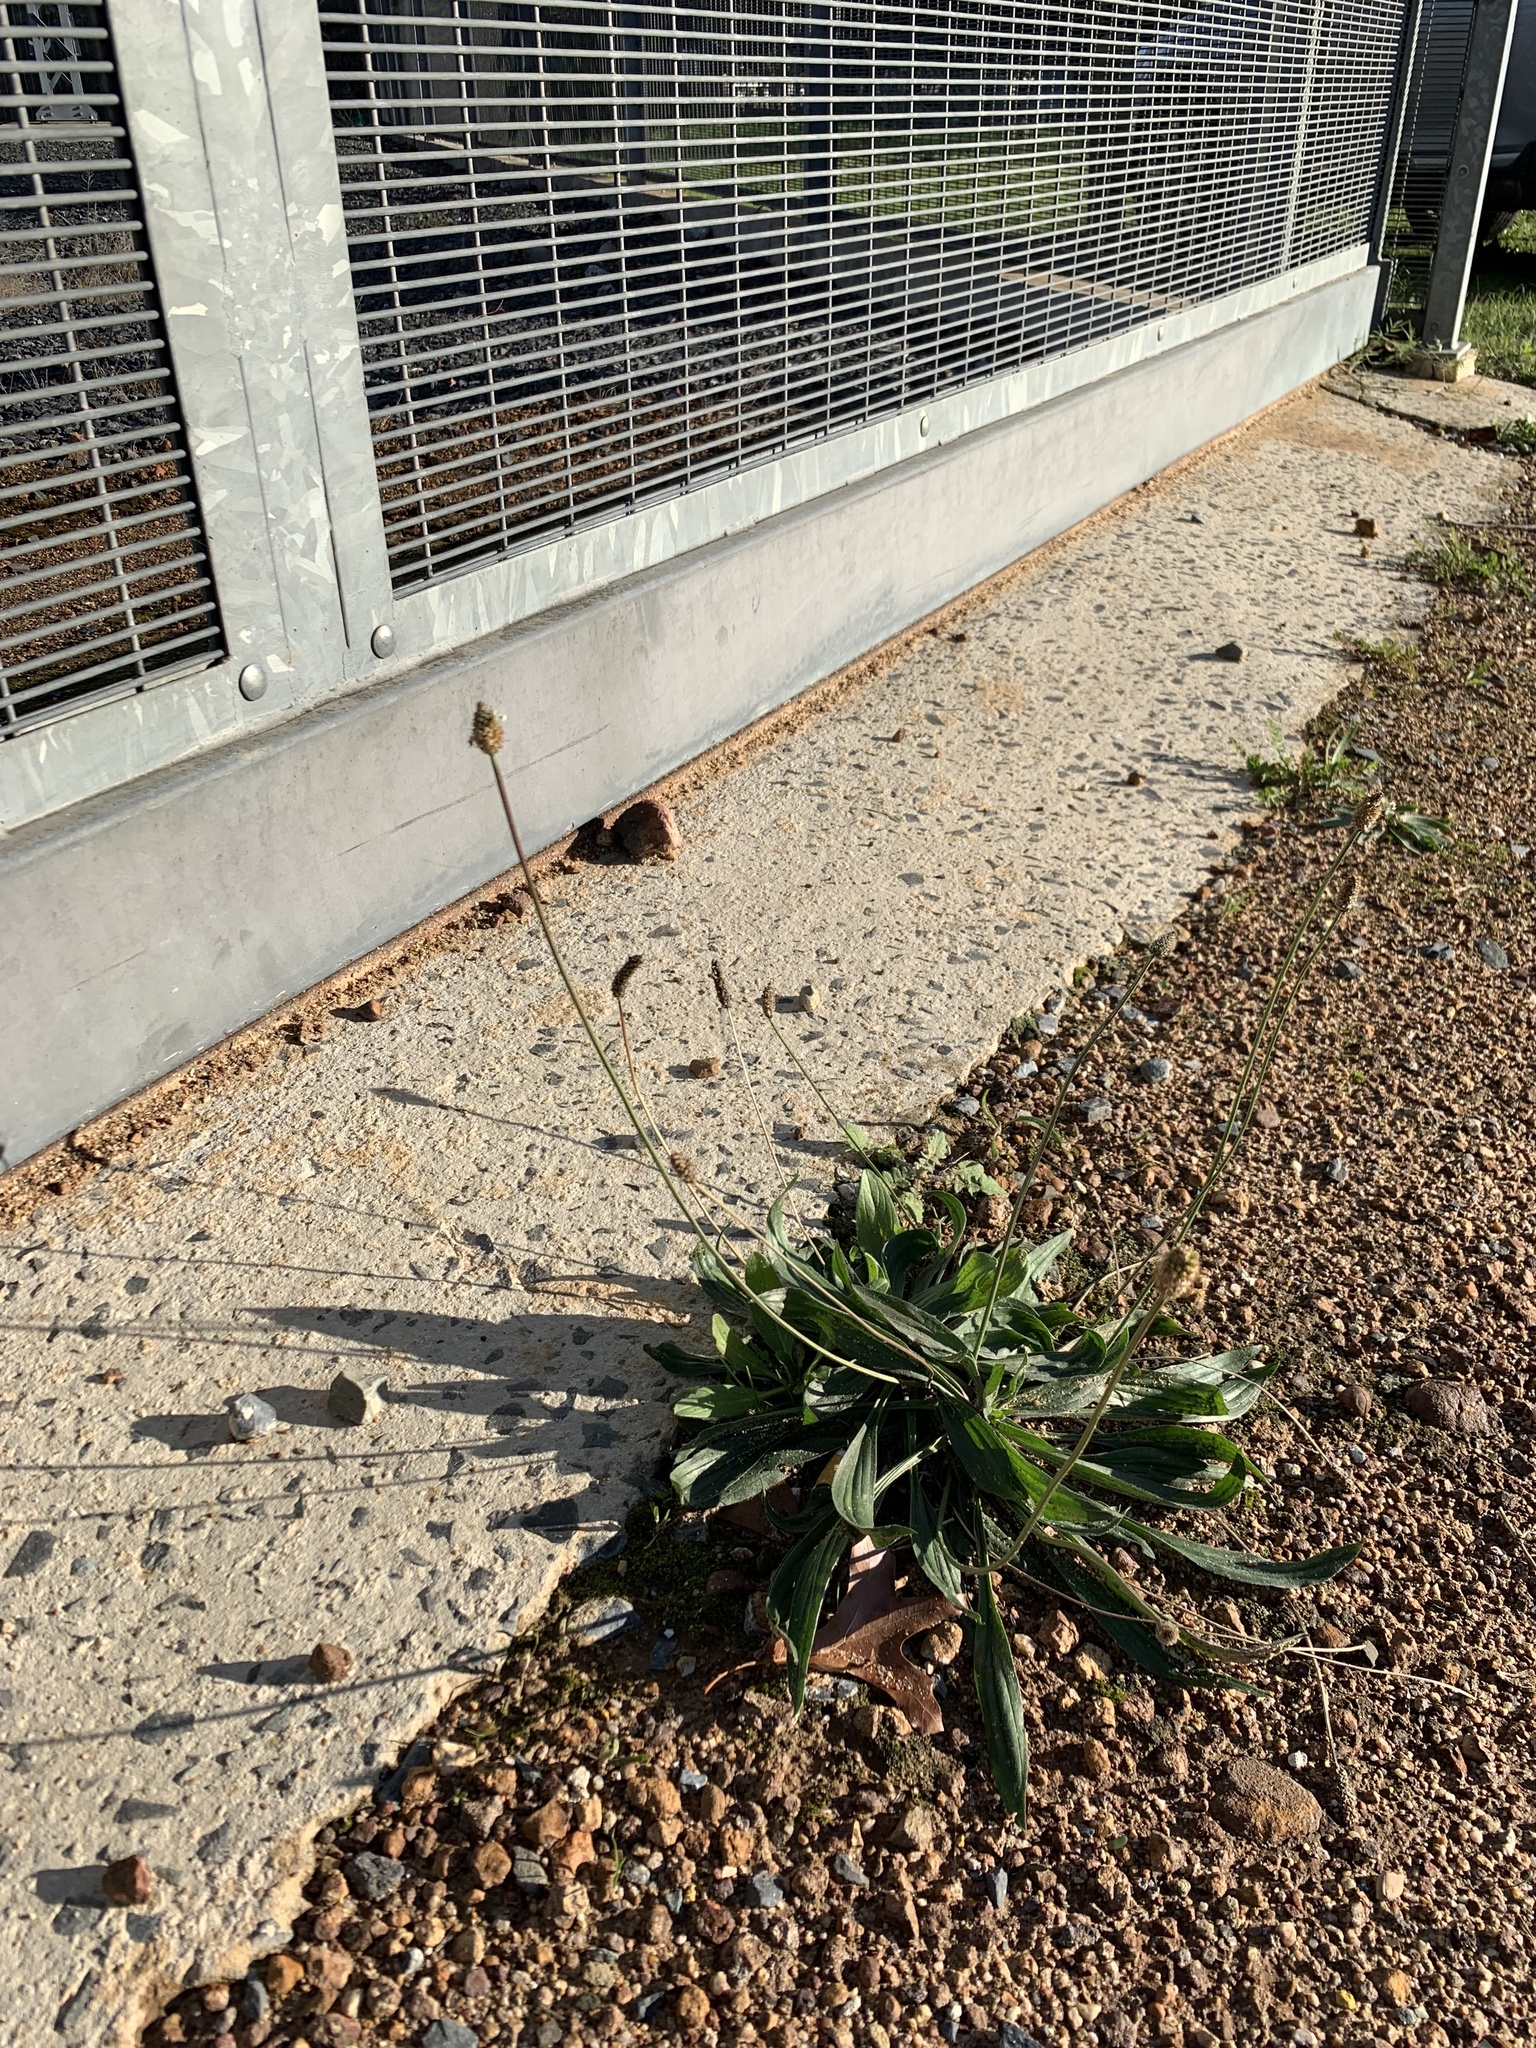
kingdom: Plantae
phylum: Tracheophyta
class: Magnoliopsida
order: Lamiales
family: Plantaginaceae
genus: Plantago
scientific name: Plantago lanceolata
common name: Ribwort plantain
